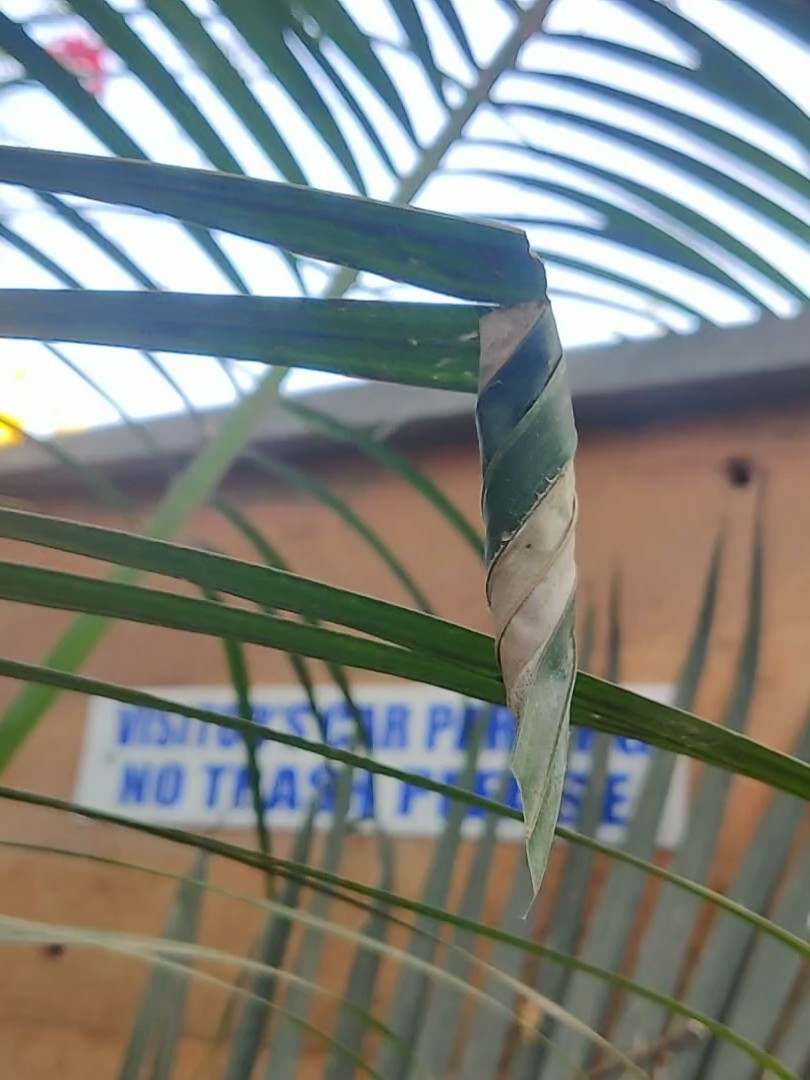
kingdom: Animalia
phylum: Arthropoda
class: Insecta
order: Lepidoptera
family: Hesperiidae
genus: Gangara
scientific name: Gangara thyrsis
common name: Giant redeye
